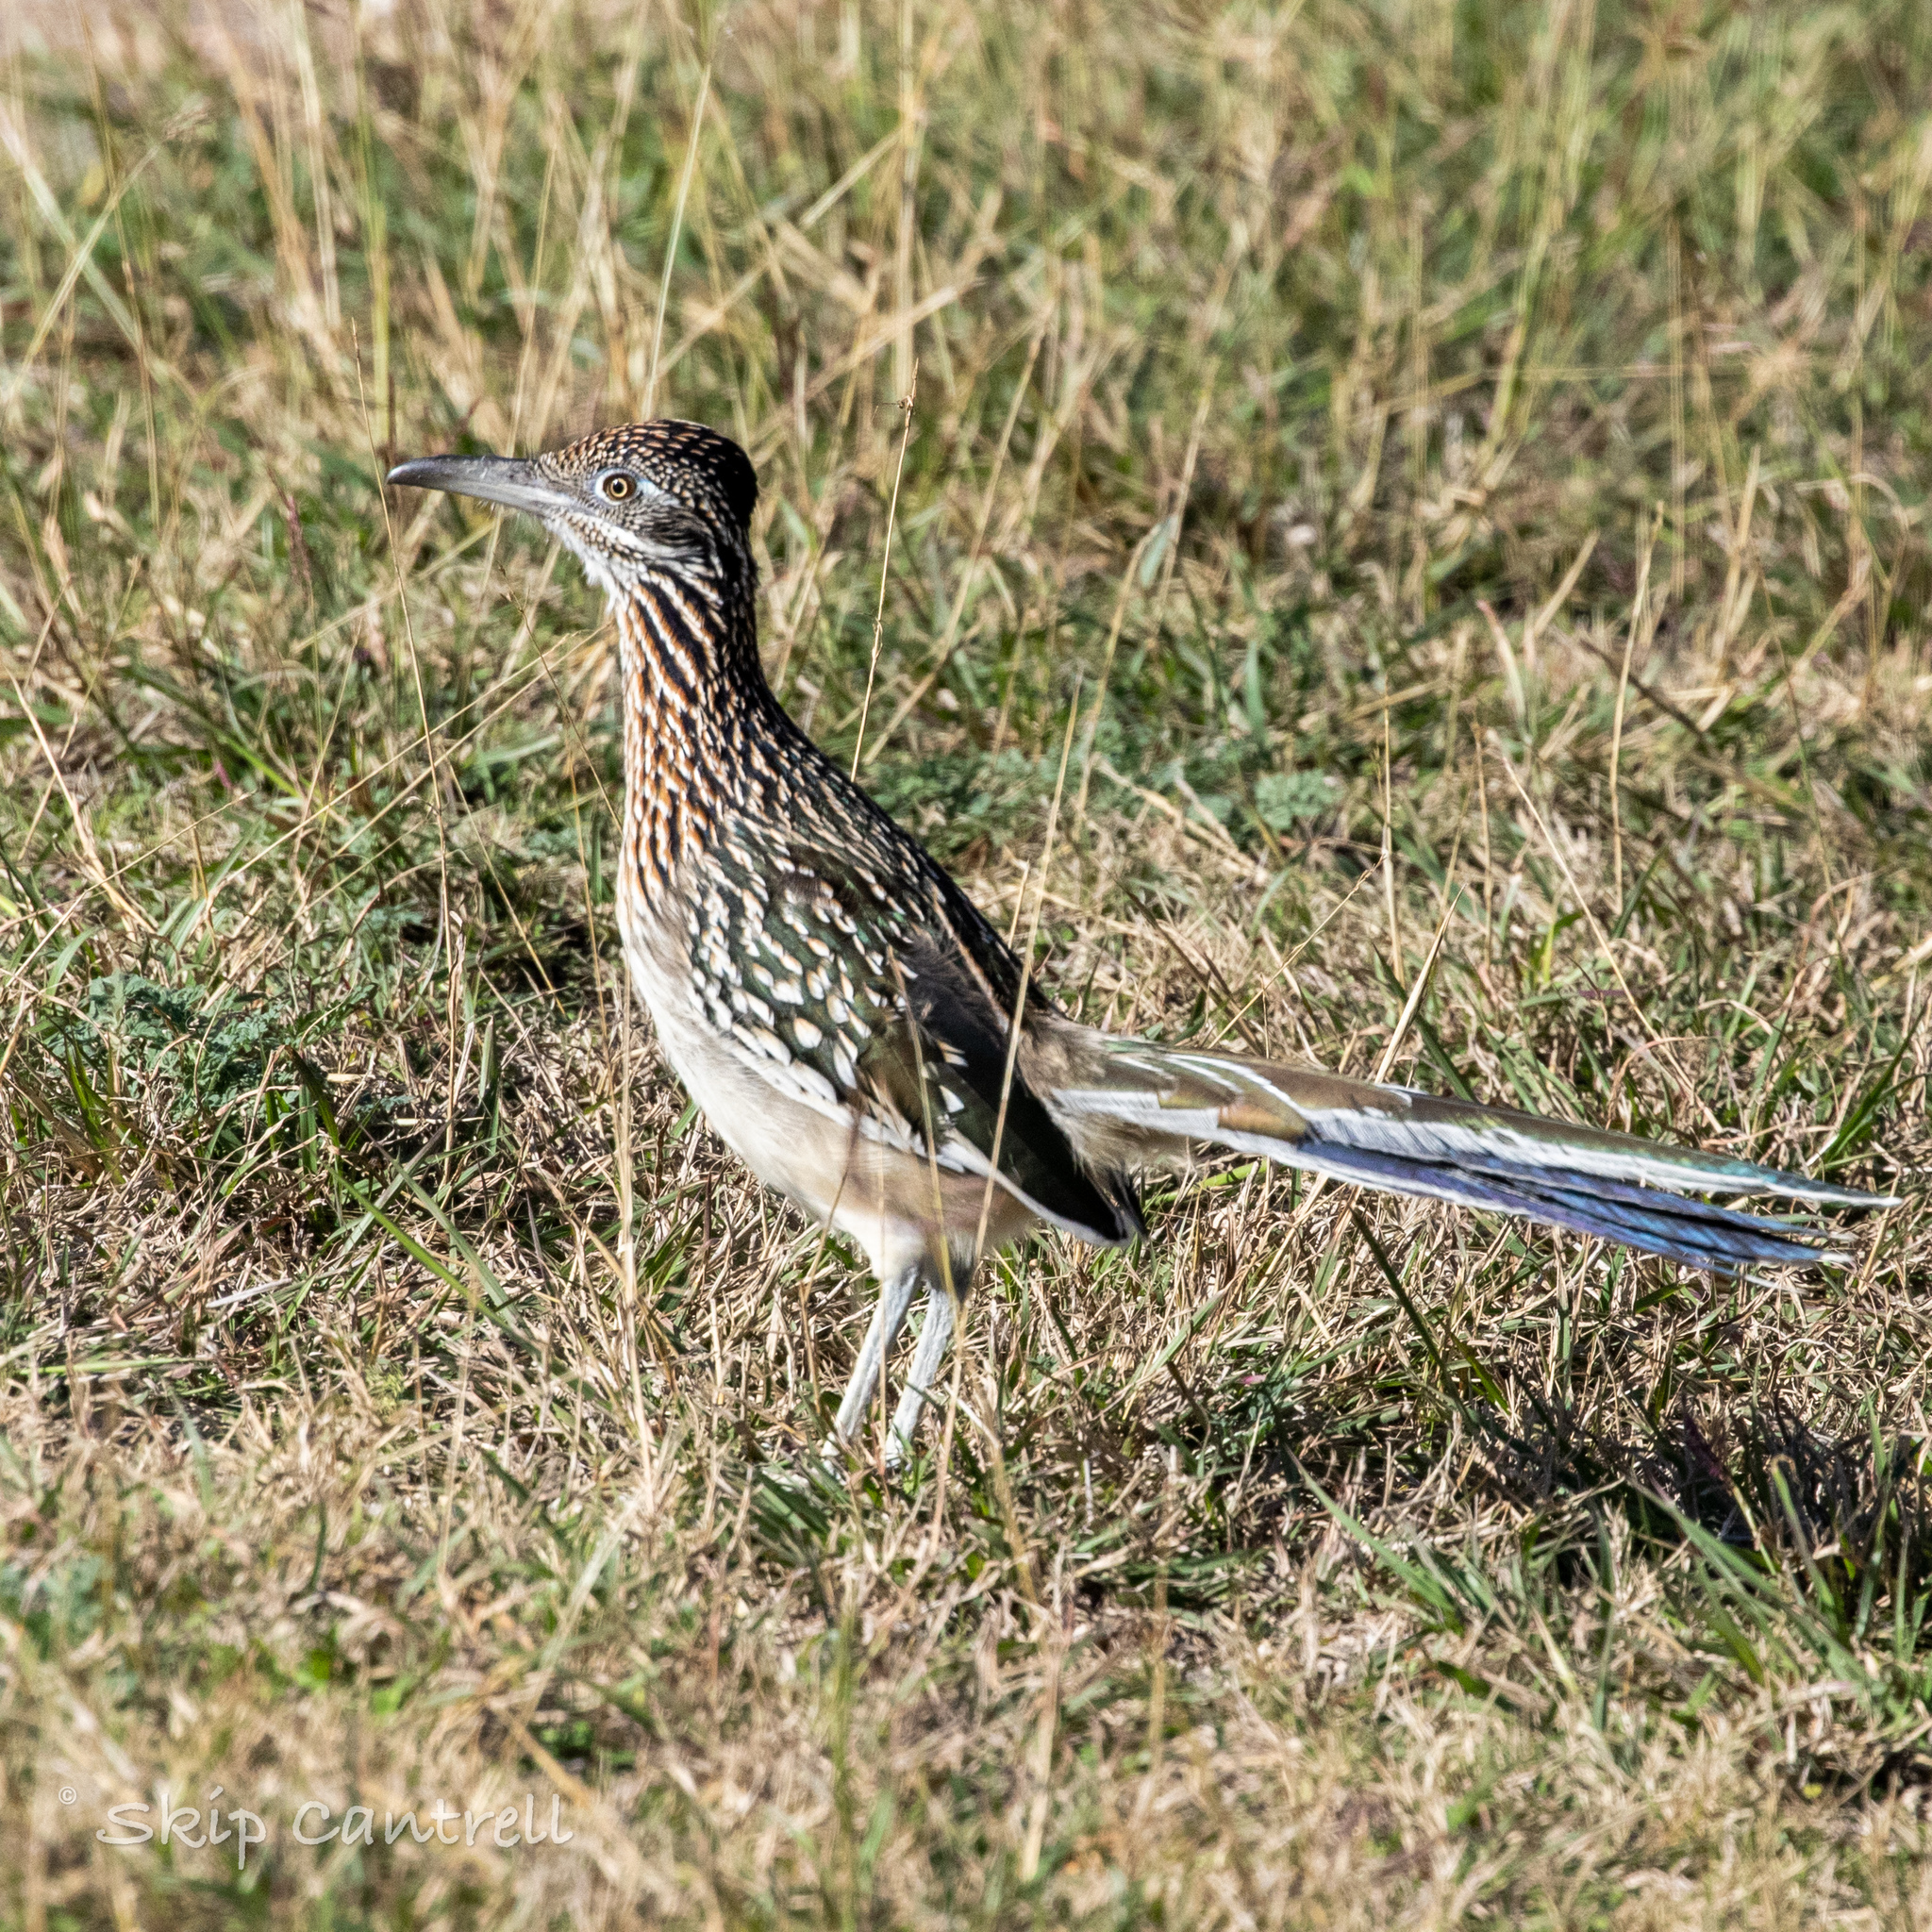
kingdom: Animalia
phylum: Chordata
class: Aves
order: Cuculiformes
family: Cuculidae
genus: Geococcyx
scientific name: Geococcyx californianus
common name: Greater roadrunner
